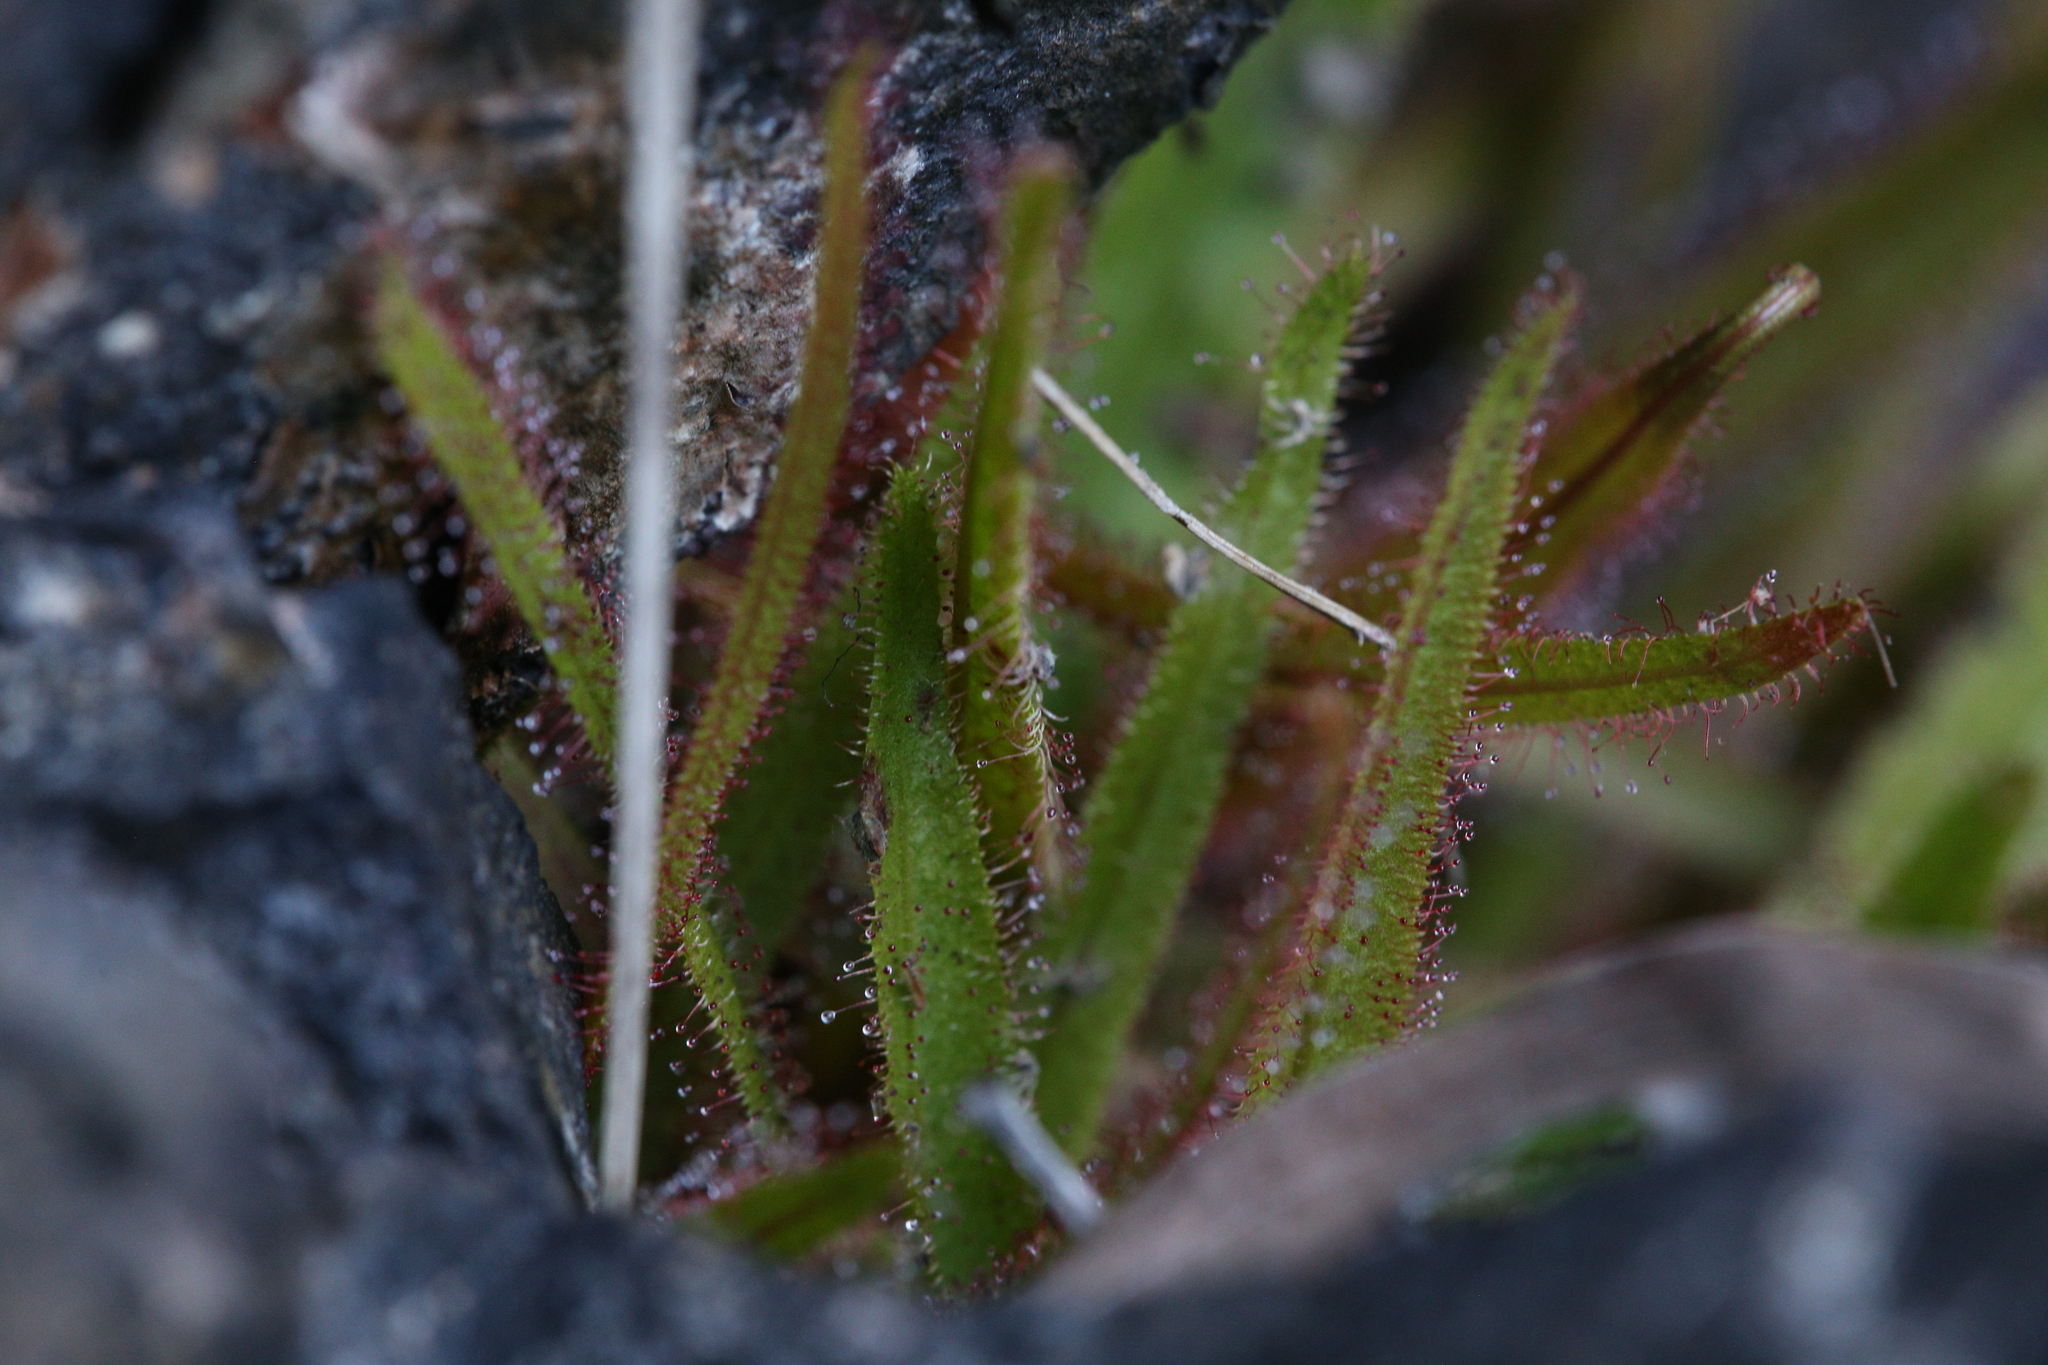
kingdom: Plantae
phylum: Tracheophyta
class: Magnoliopsida
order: Caryophyllales
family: Droseraceae
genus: Drosera
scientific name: Drosera adelae
